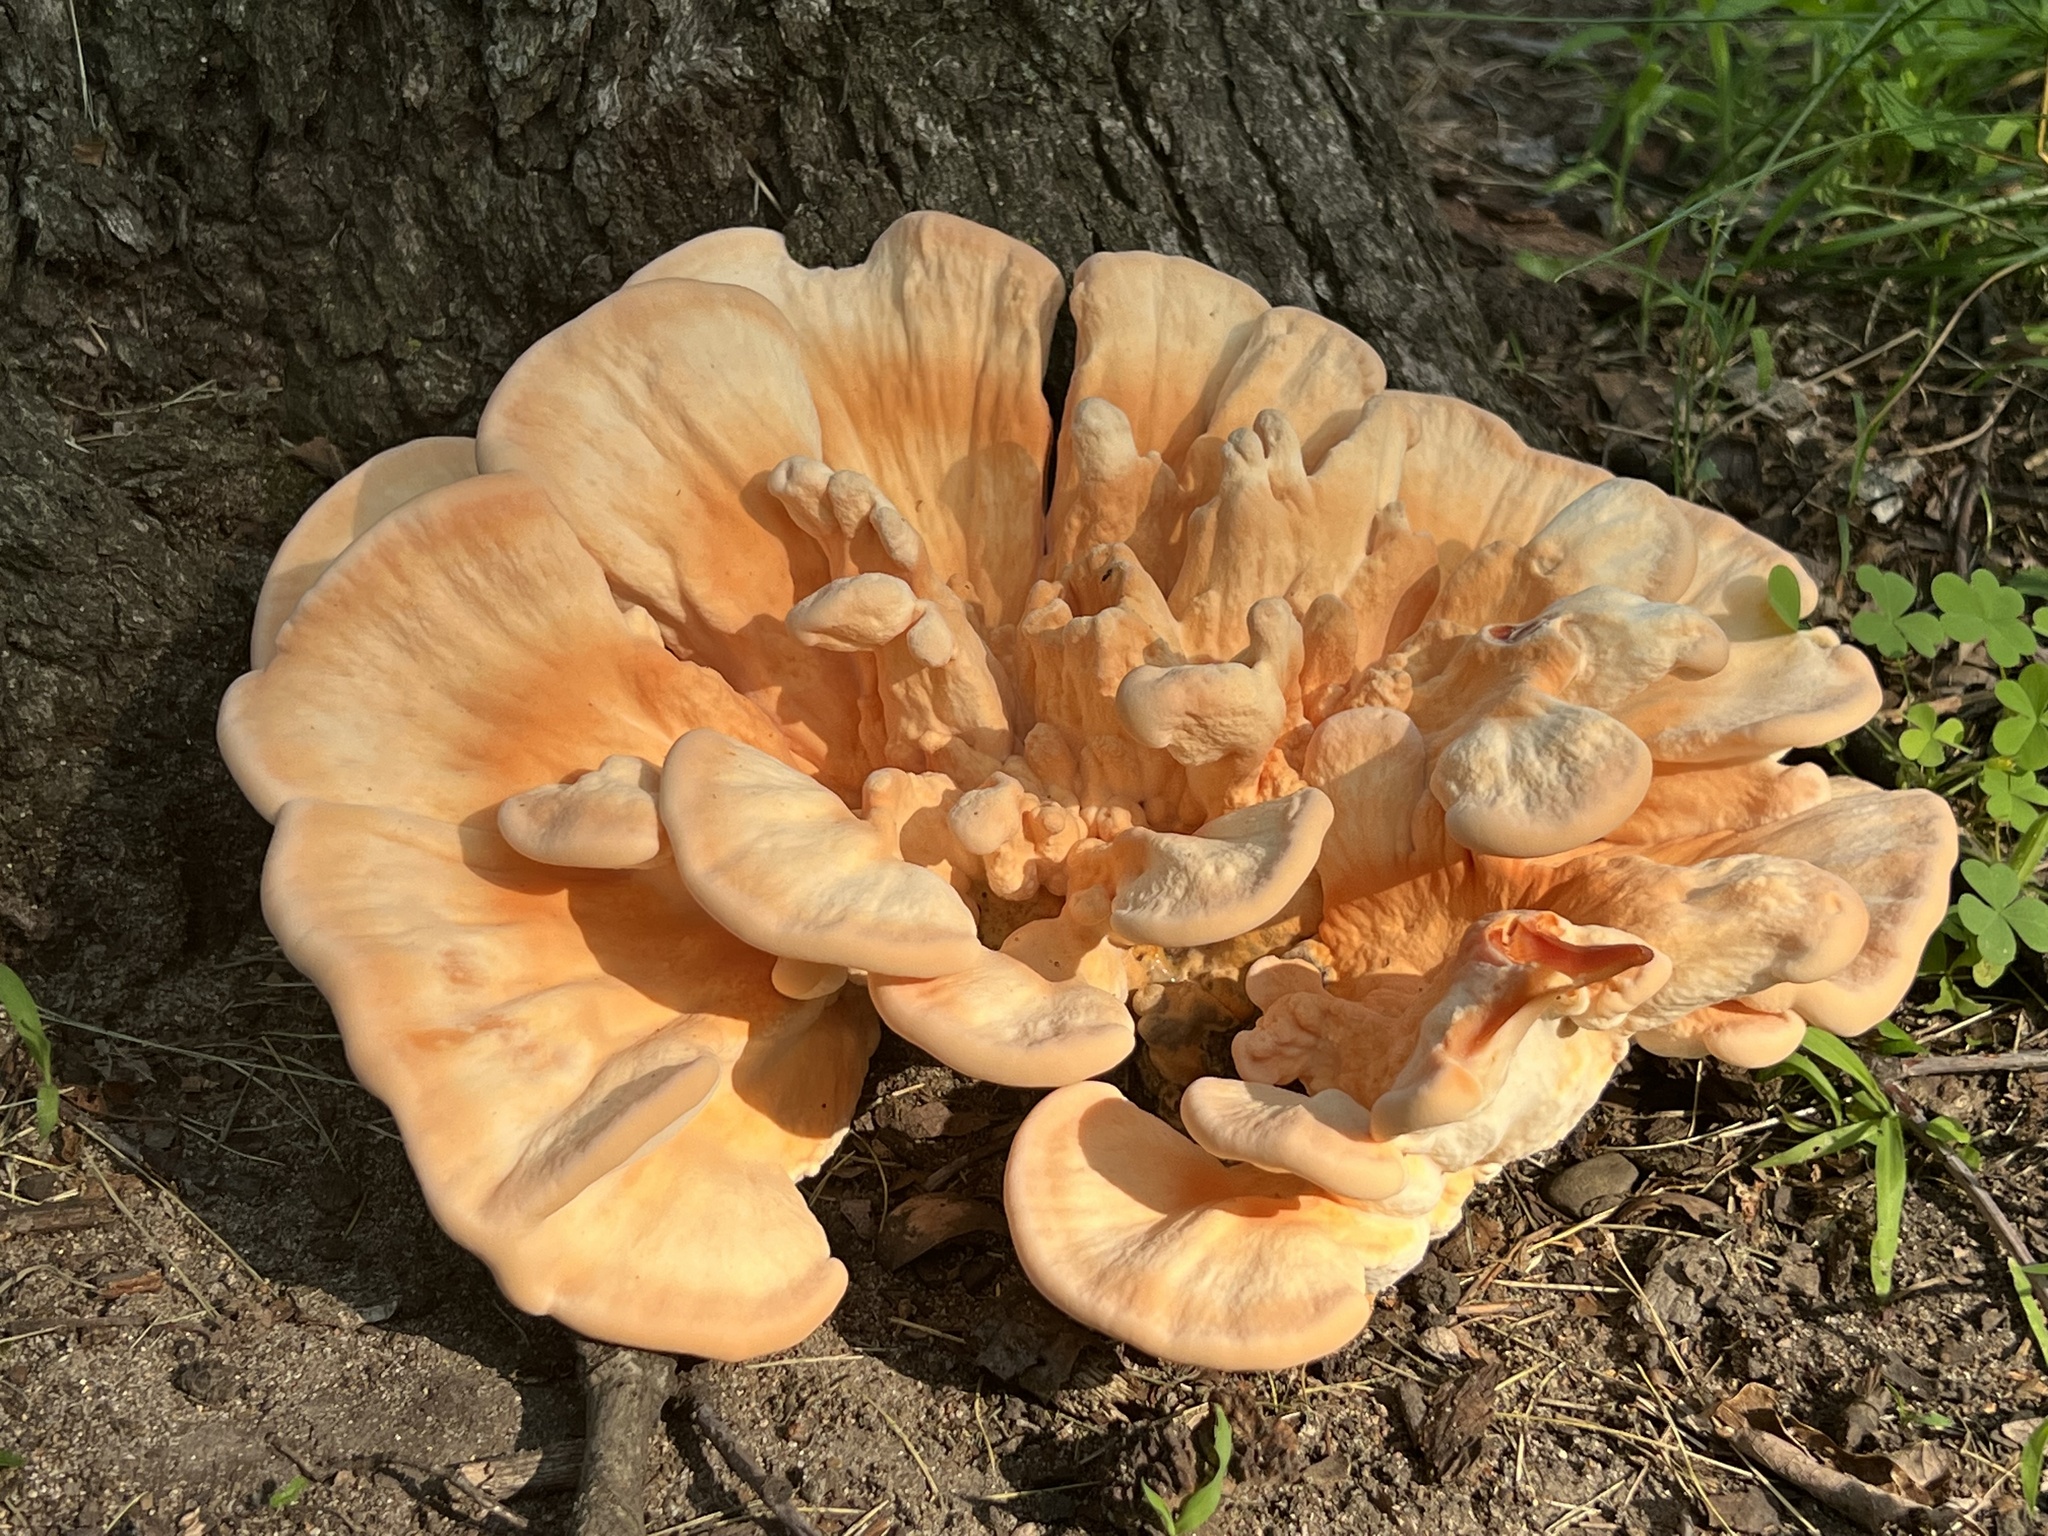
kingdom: Fungi
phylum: Basidiomycota
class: Agaricomycetes
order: Polyporales
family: Laetiporaceae
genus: Laetiporus
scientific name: Laetiporus sulphureus
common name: Chicken of the woods
